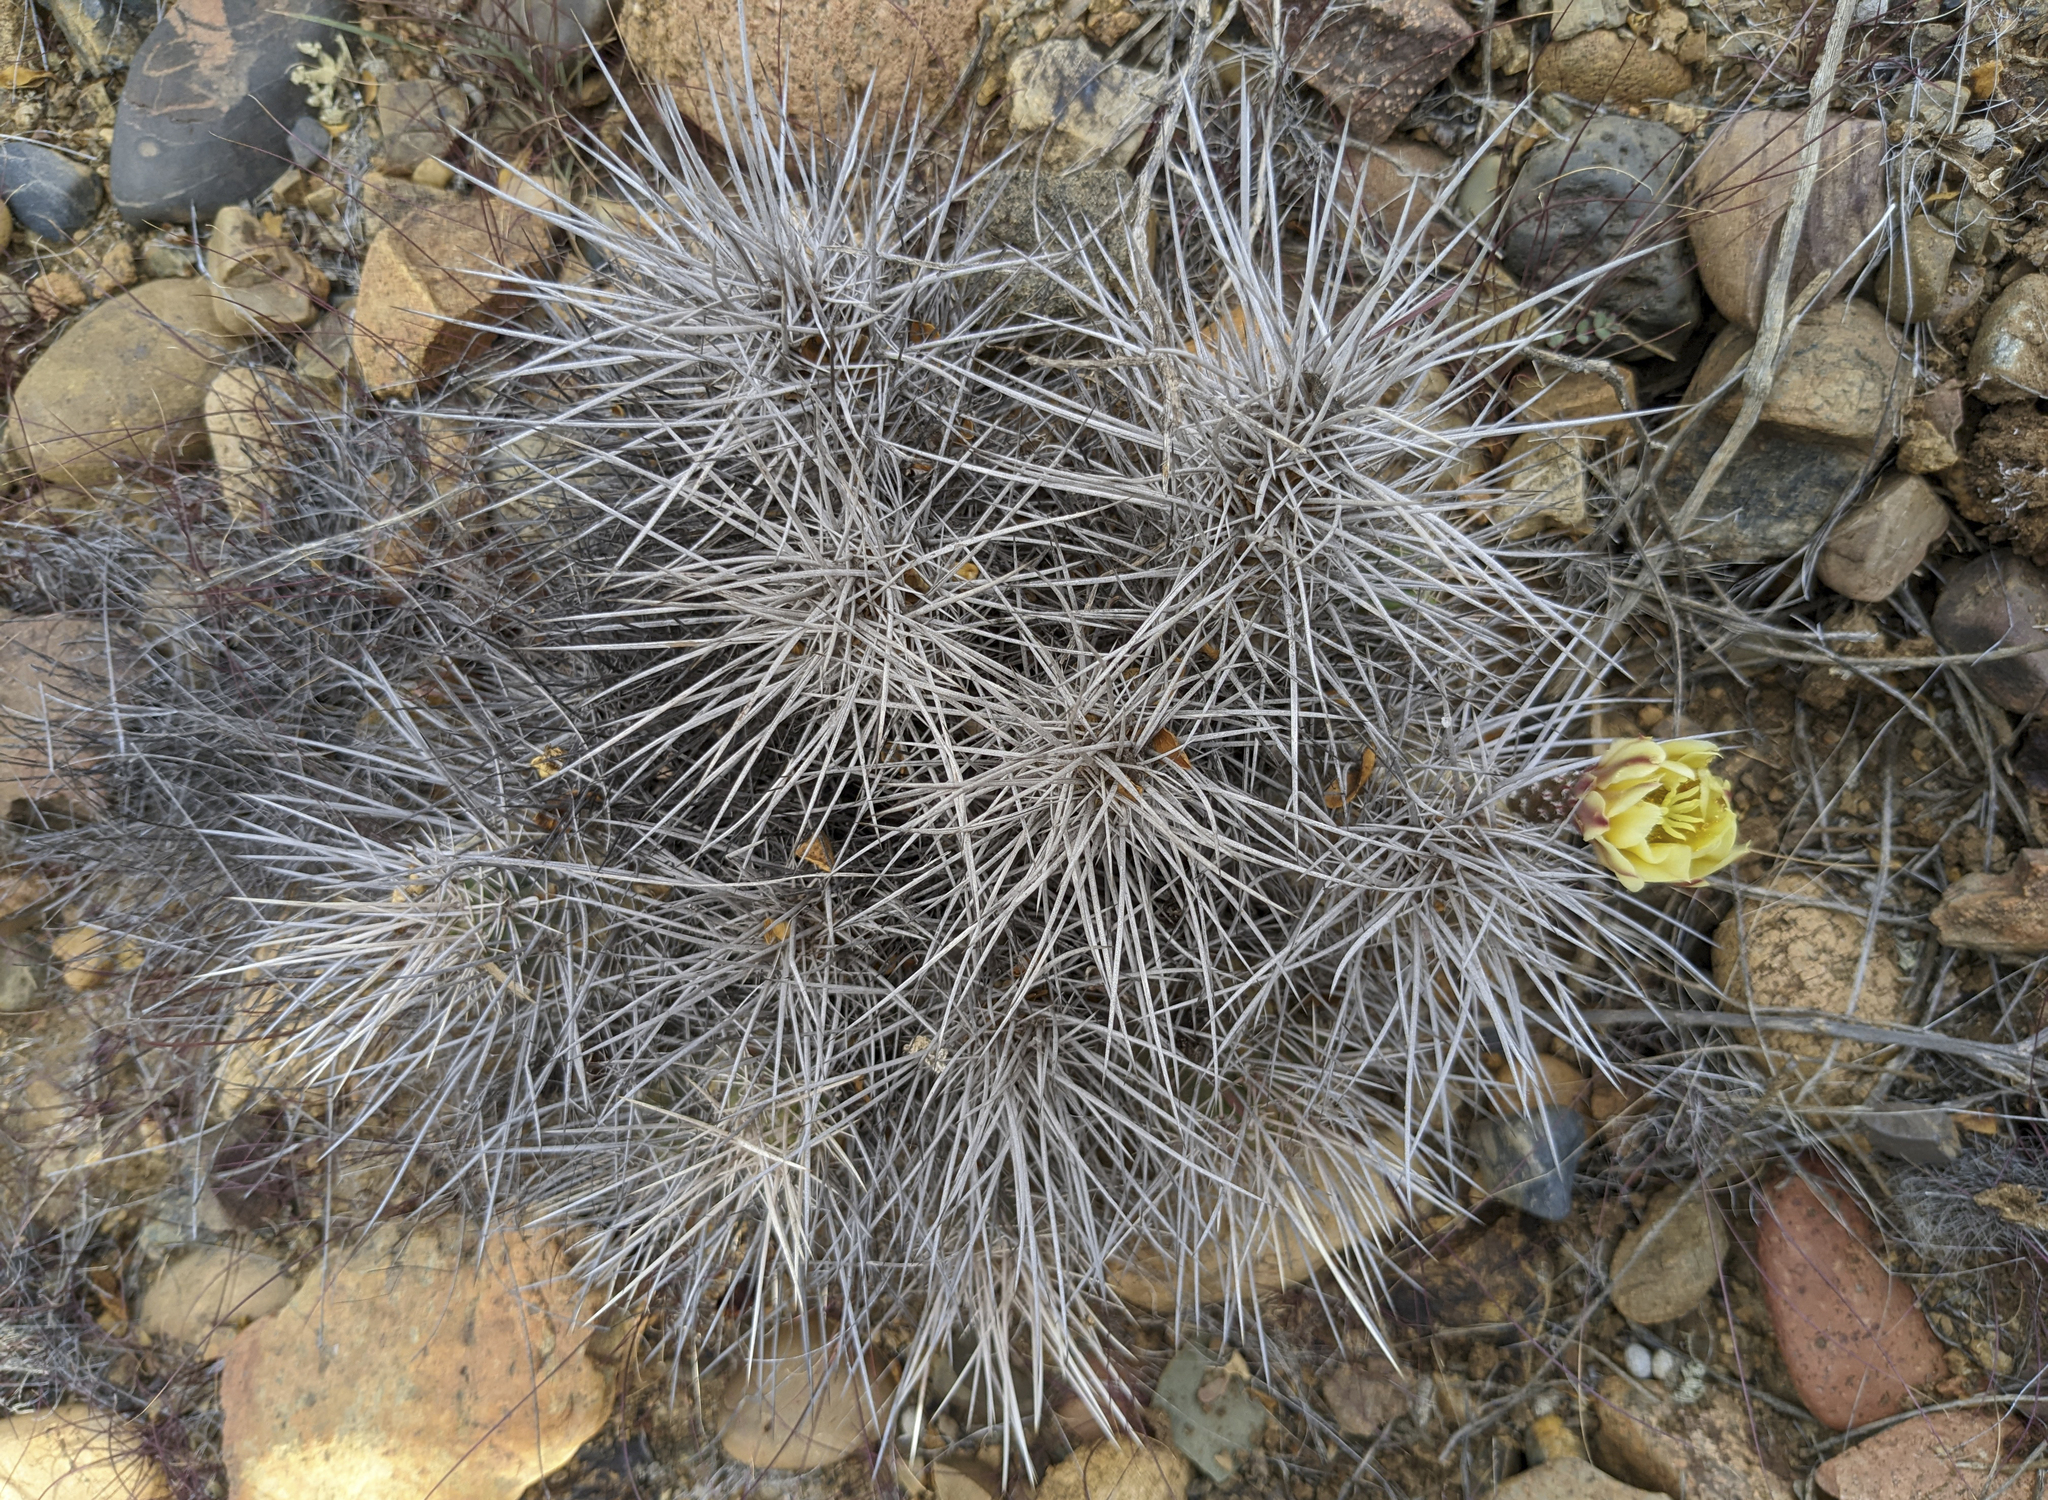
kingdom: Plantae
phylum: Tracheophyta
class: Magnoliopsida
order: Caryophyllales
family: Cactaceae
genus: Echinocereus
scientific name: Echinocereus maritimus
